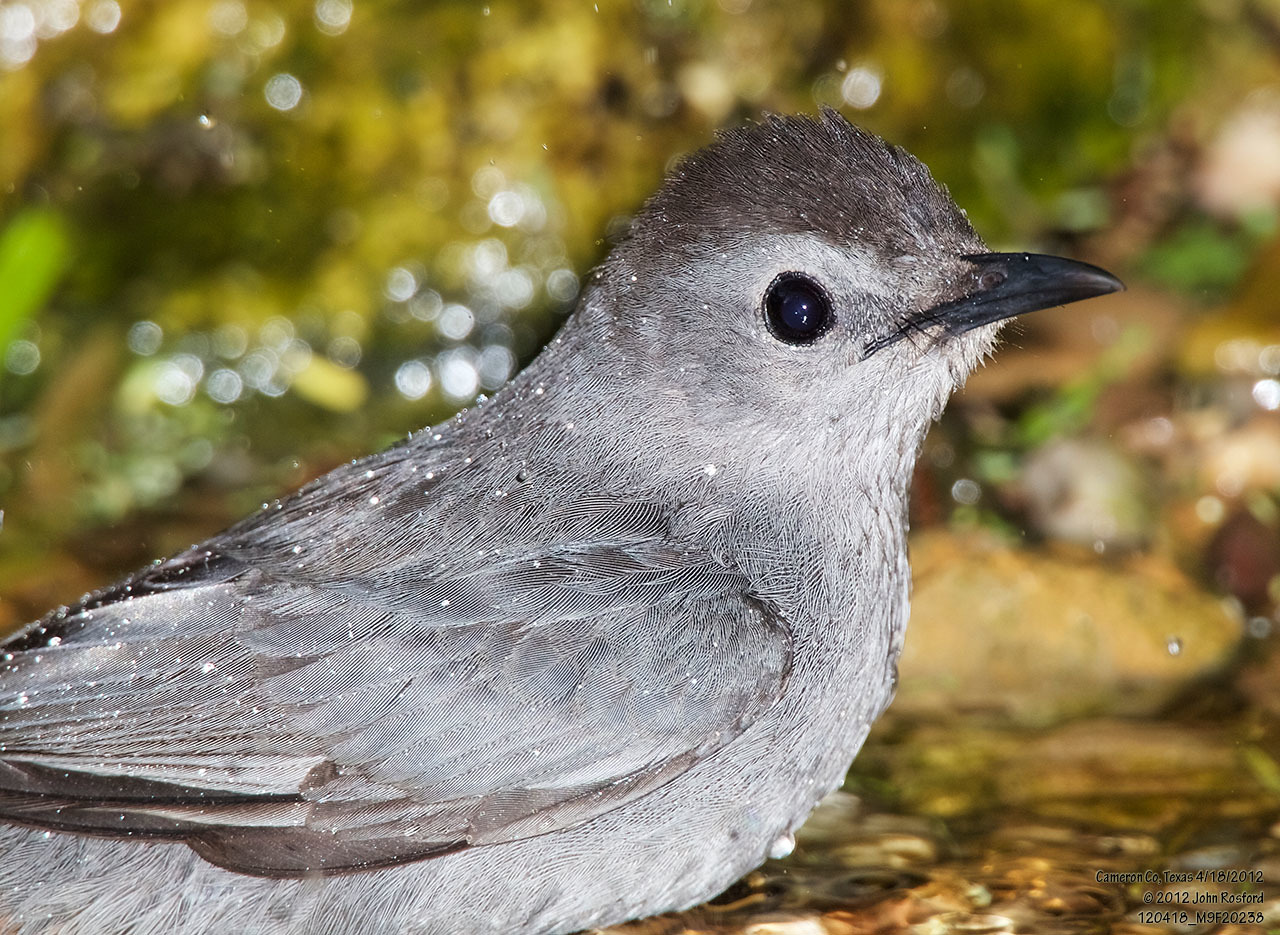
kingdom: Animalia
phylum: Chordata
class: Aves
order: Passeriformes
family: Mimidae
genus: Dumetella
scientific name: Dumetella carolinensis
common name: Gray catbird
